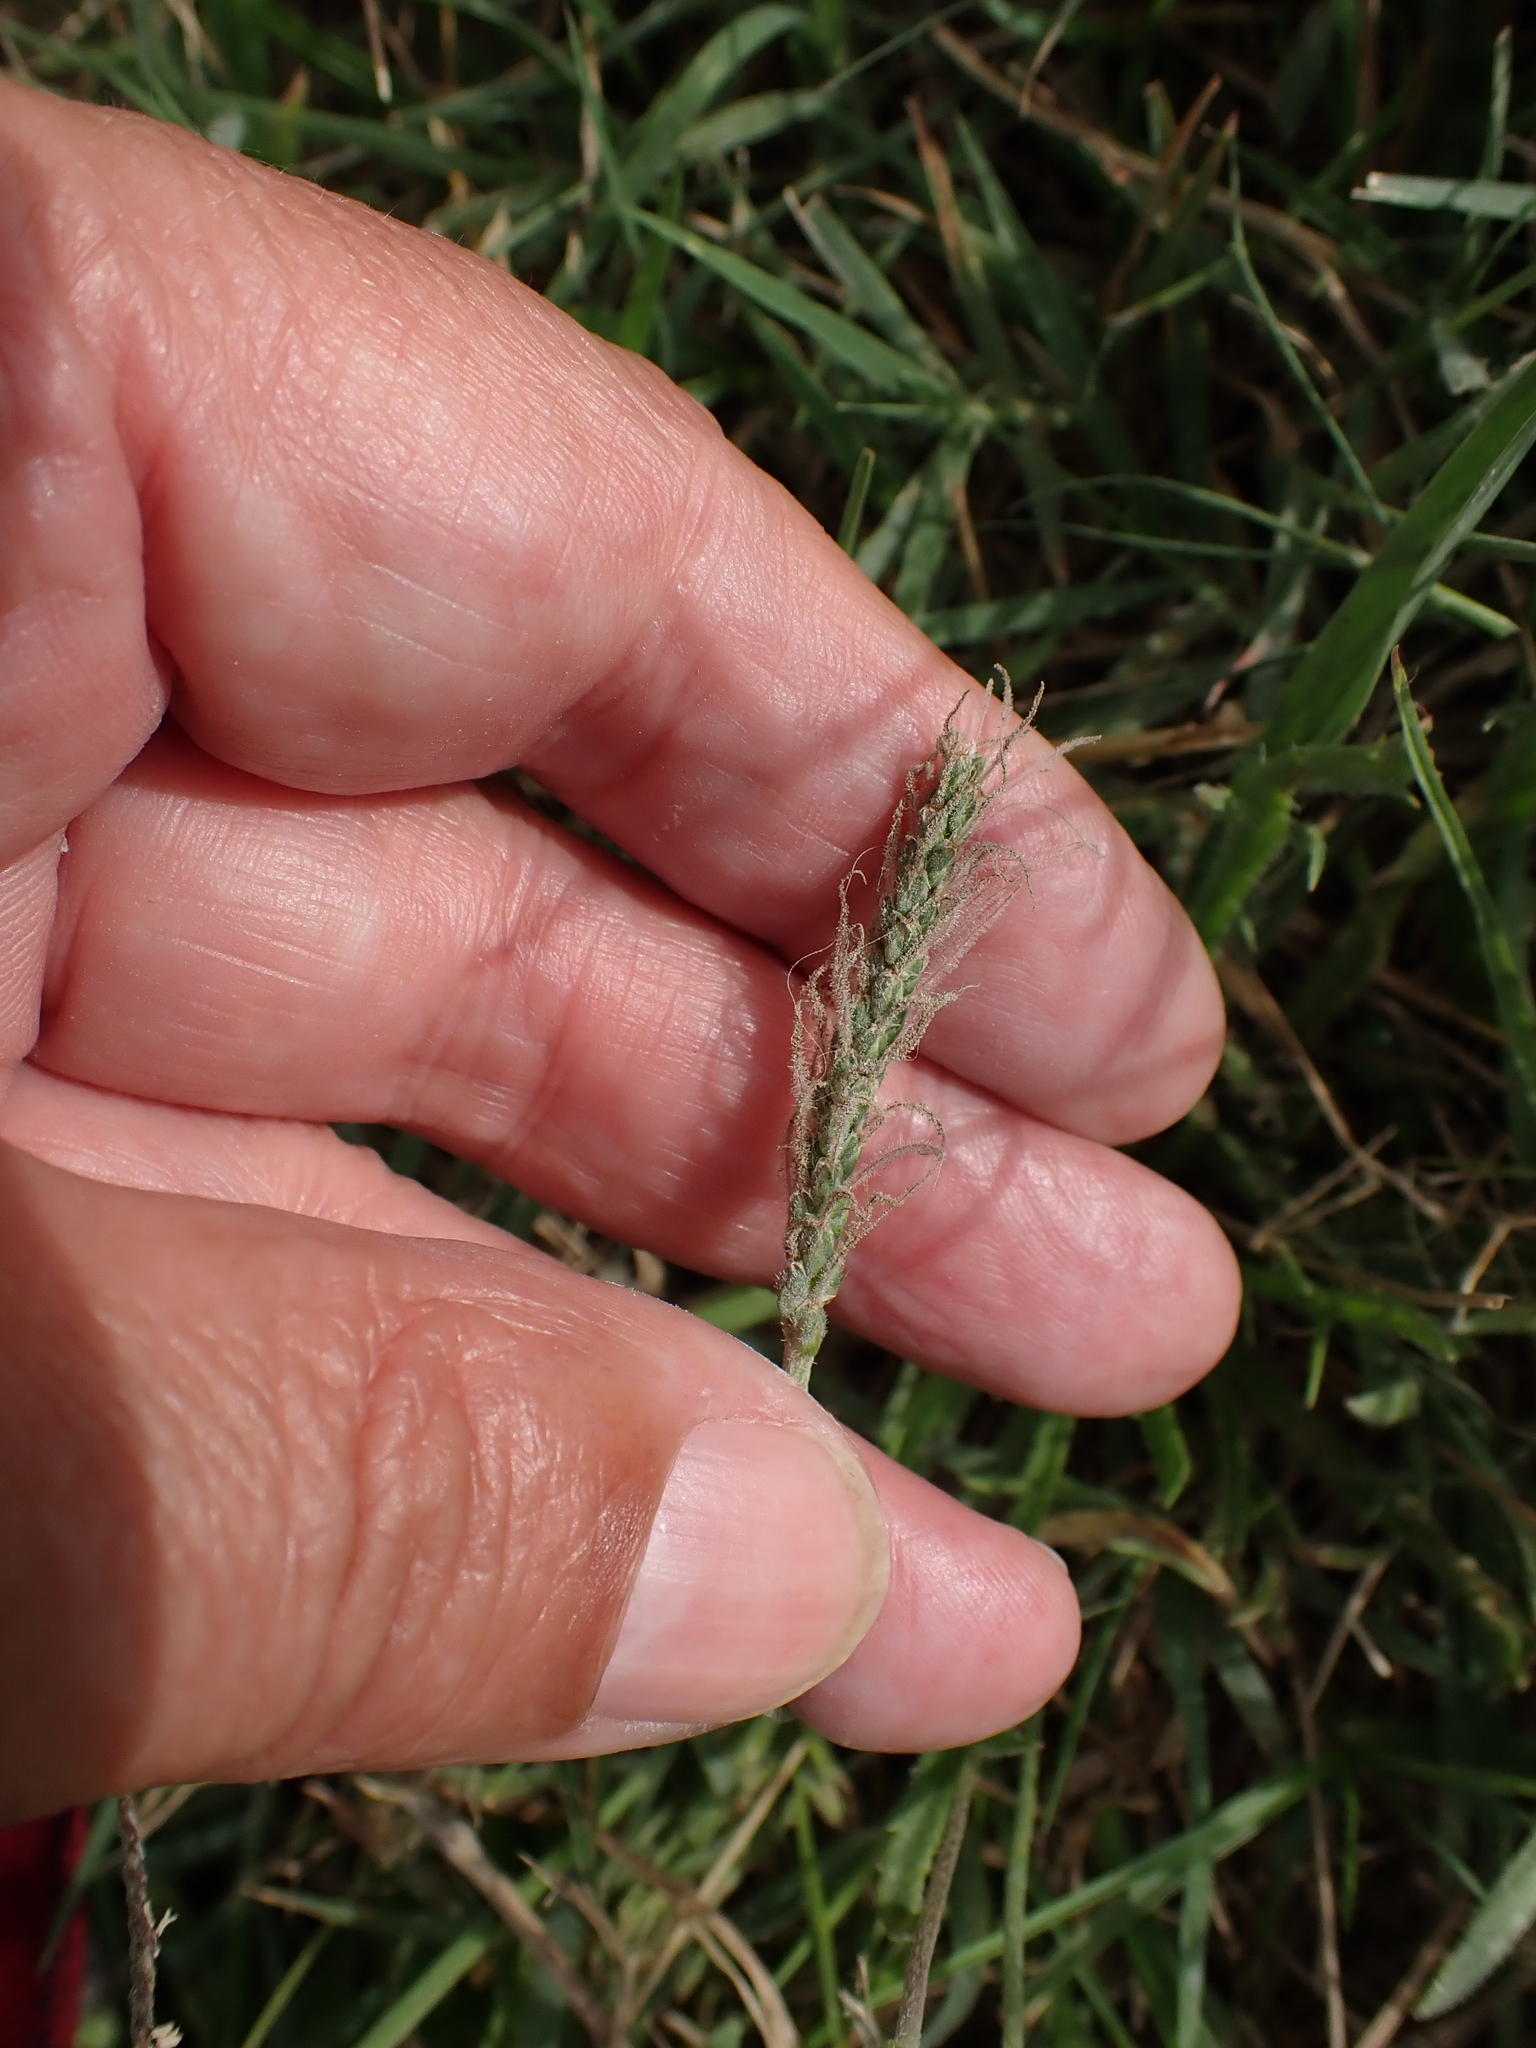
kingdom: Plantae
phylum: Tracheophyta
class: Magnoliopsida
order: Lamiales
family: Plantaginaceae
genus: Plantago
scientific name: Plantago coronopus
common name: Buck's-horn plantain
